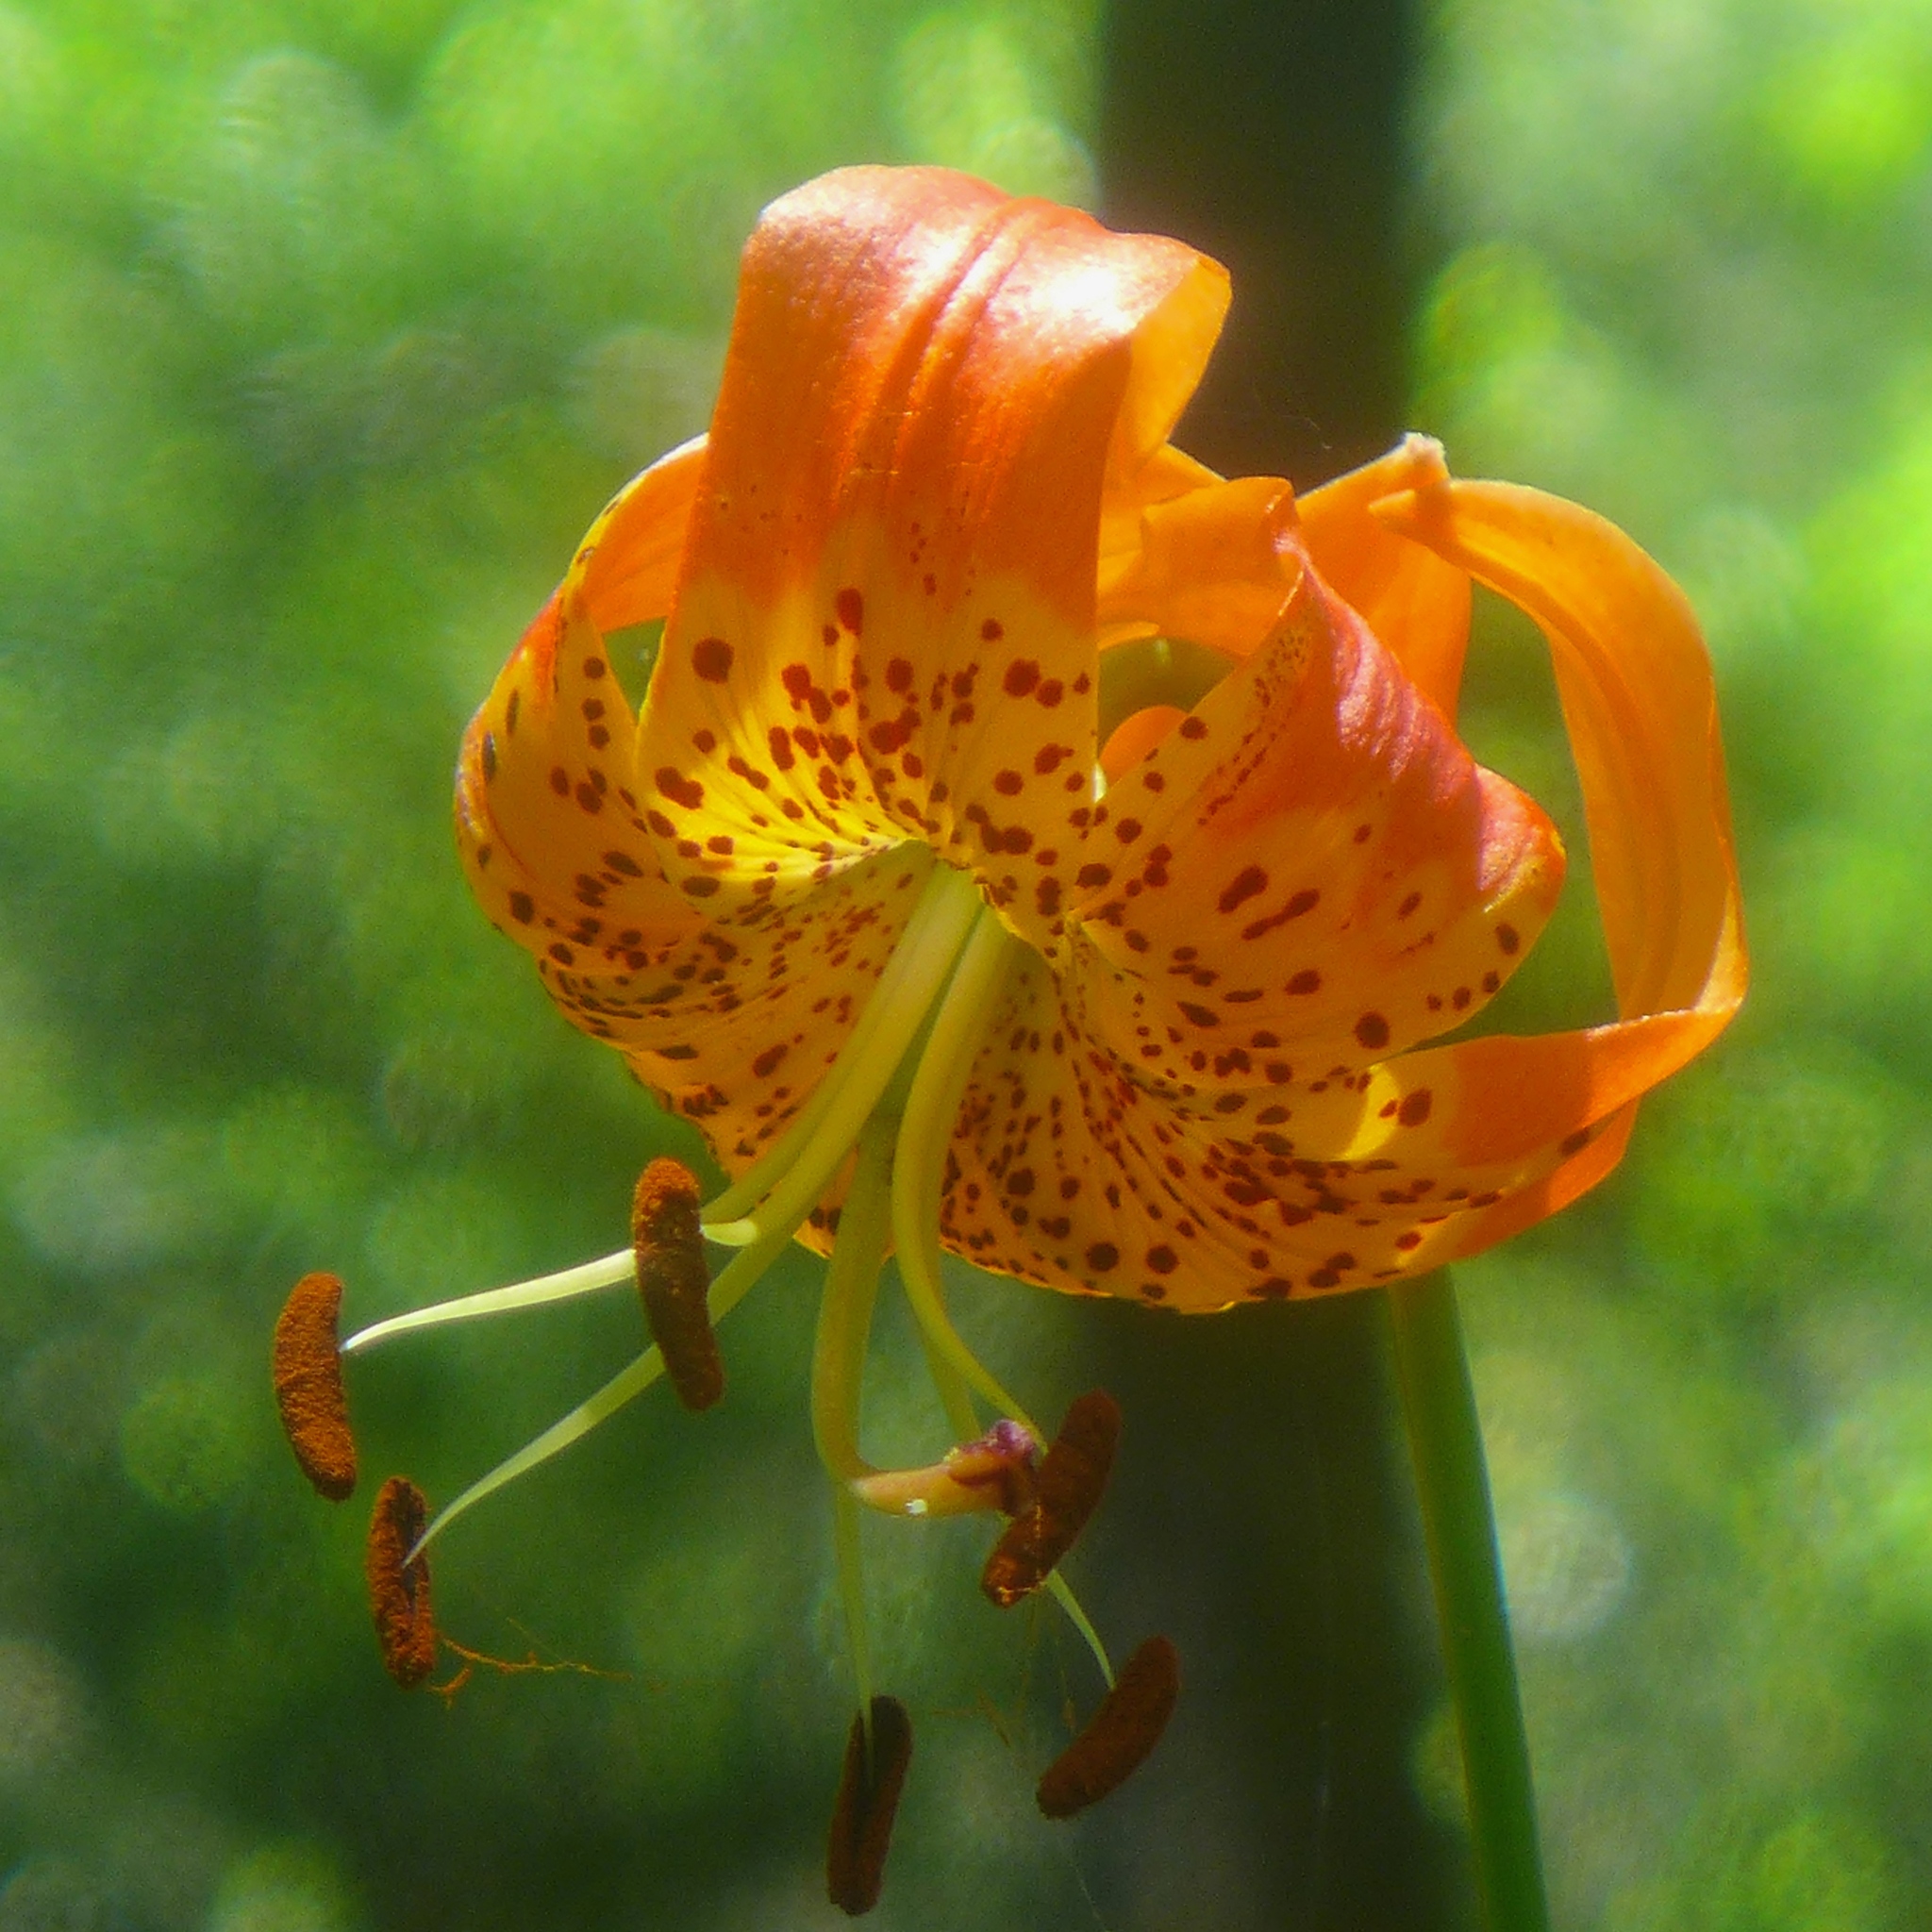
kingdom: Plantae
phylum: Tracheophyta
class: Liliopsida
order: Liliales
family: Liliaceae
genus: Lilium
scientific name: Lilium pardalinum
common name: Panther lily
